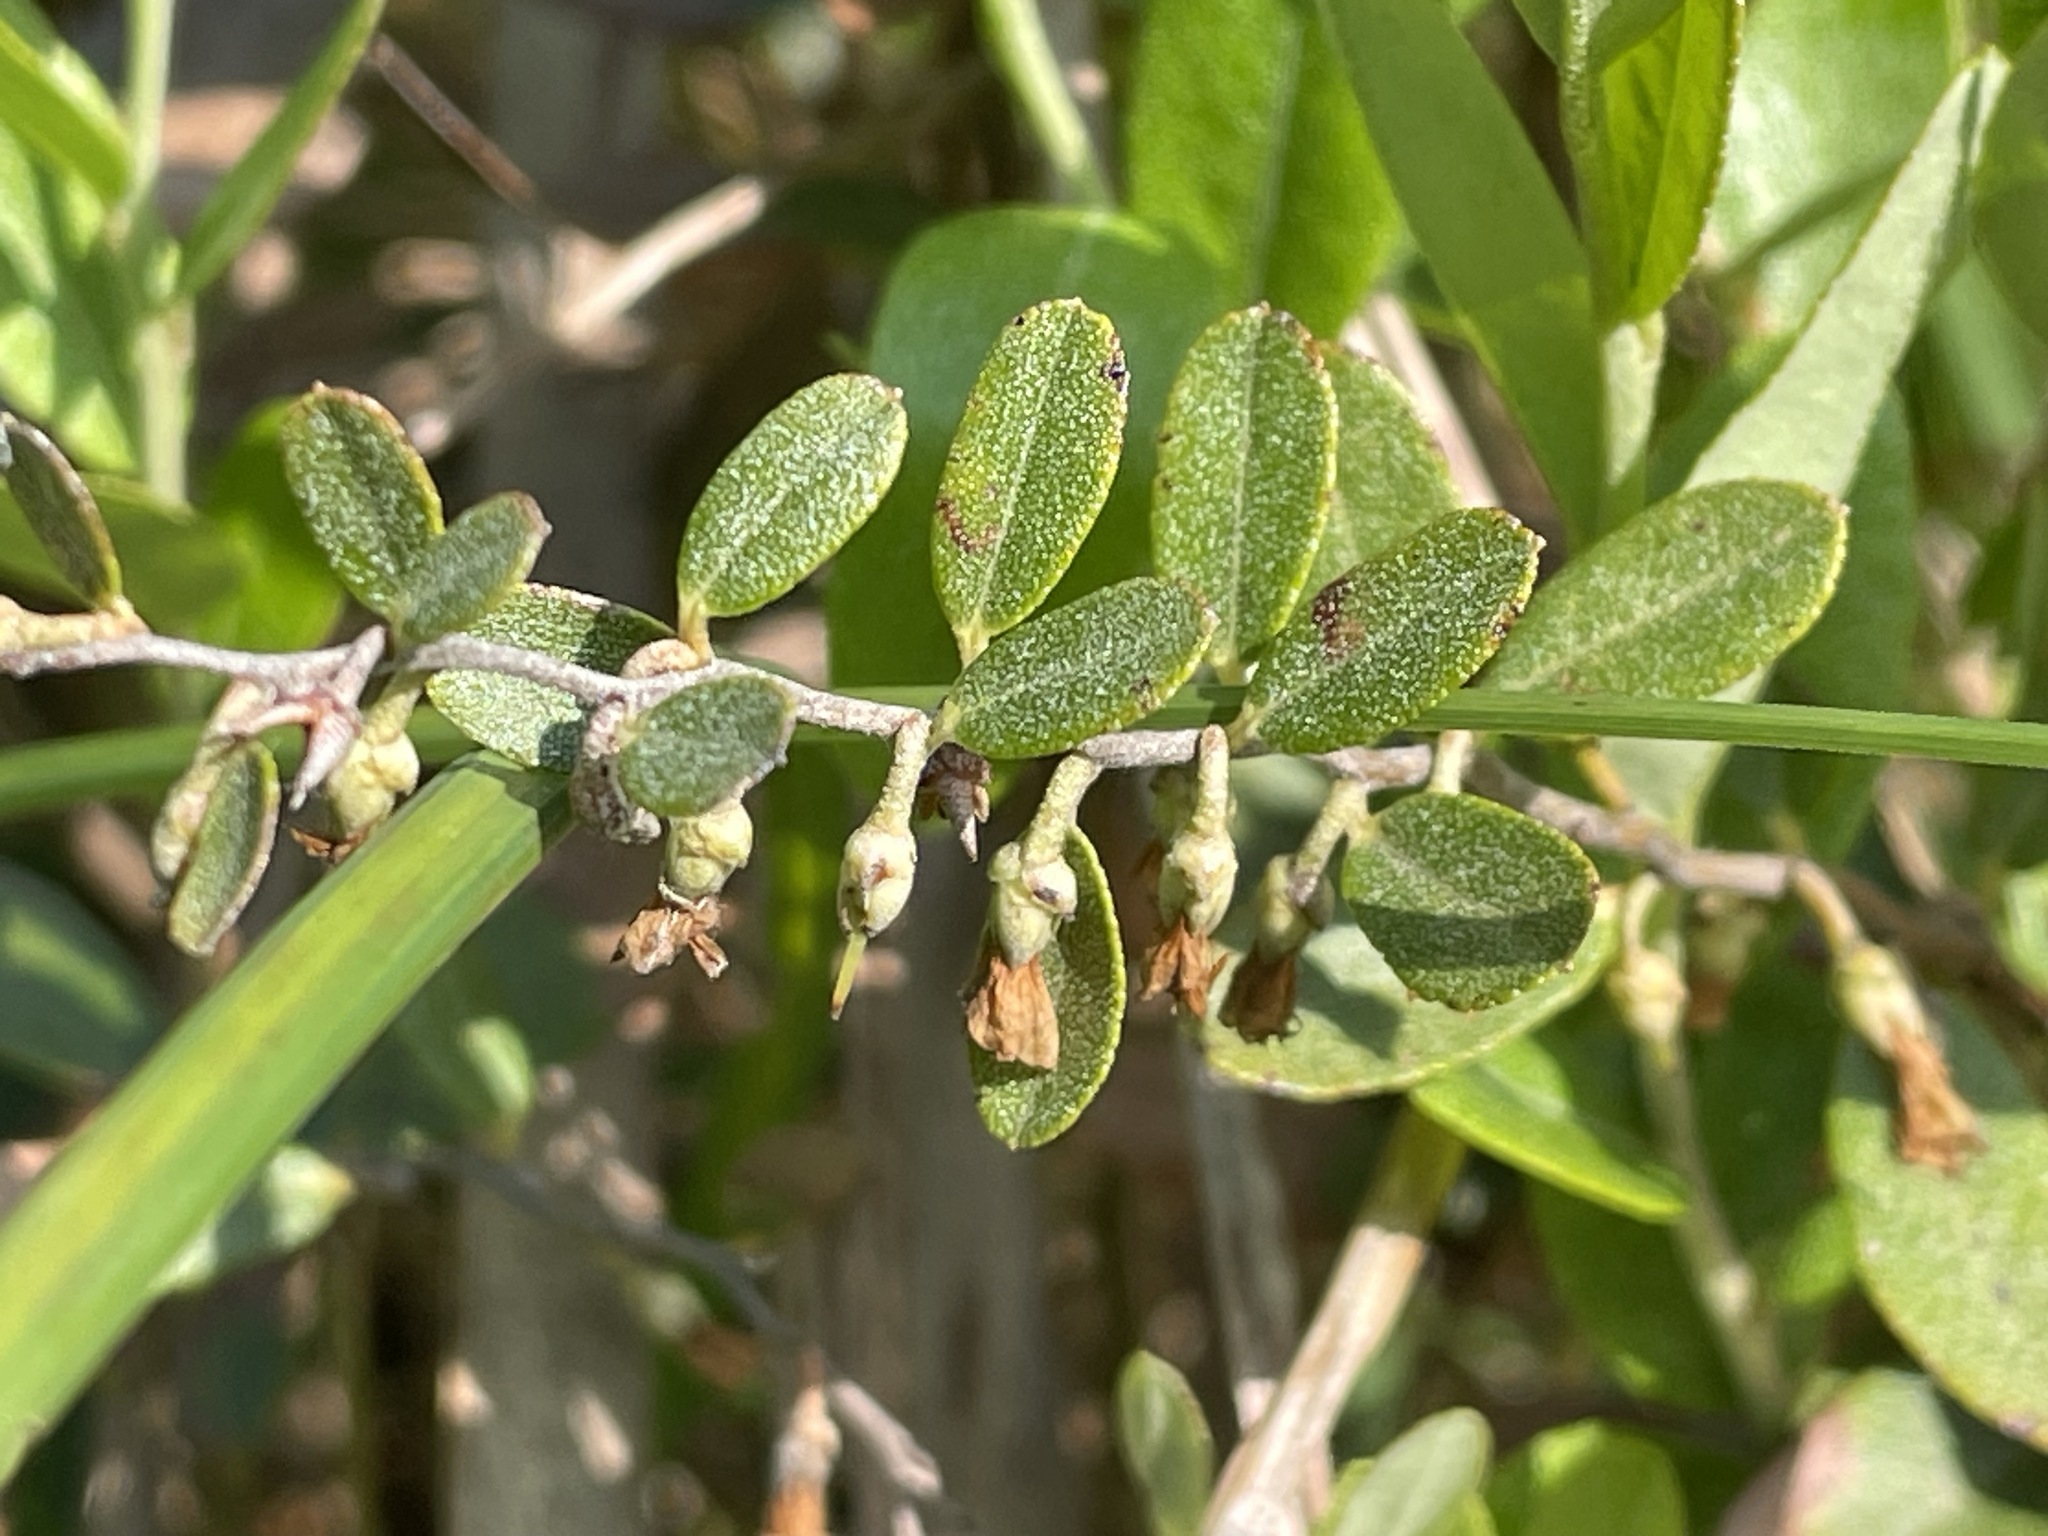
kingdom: Plantae
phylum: Tracheophyta
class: Magnoliopsida
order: Ericales
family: Ericaceae
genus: Chamaedaphne
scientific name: Chamaedaphne calyculata
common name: Leatherleaf
